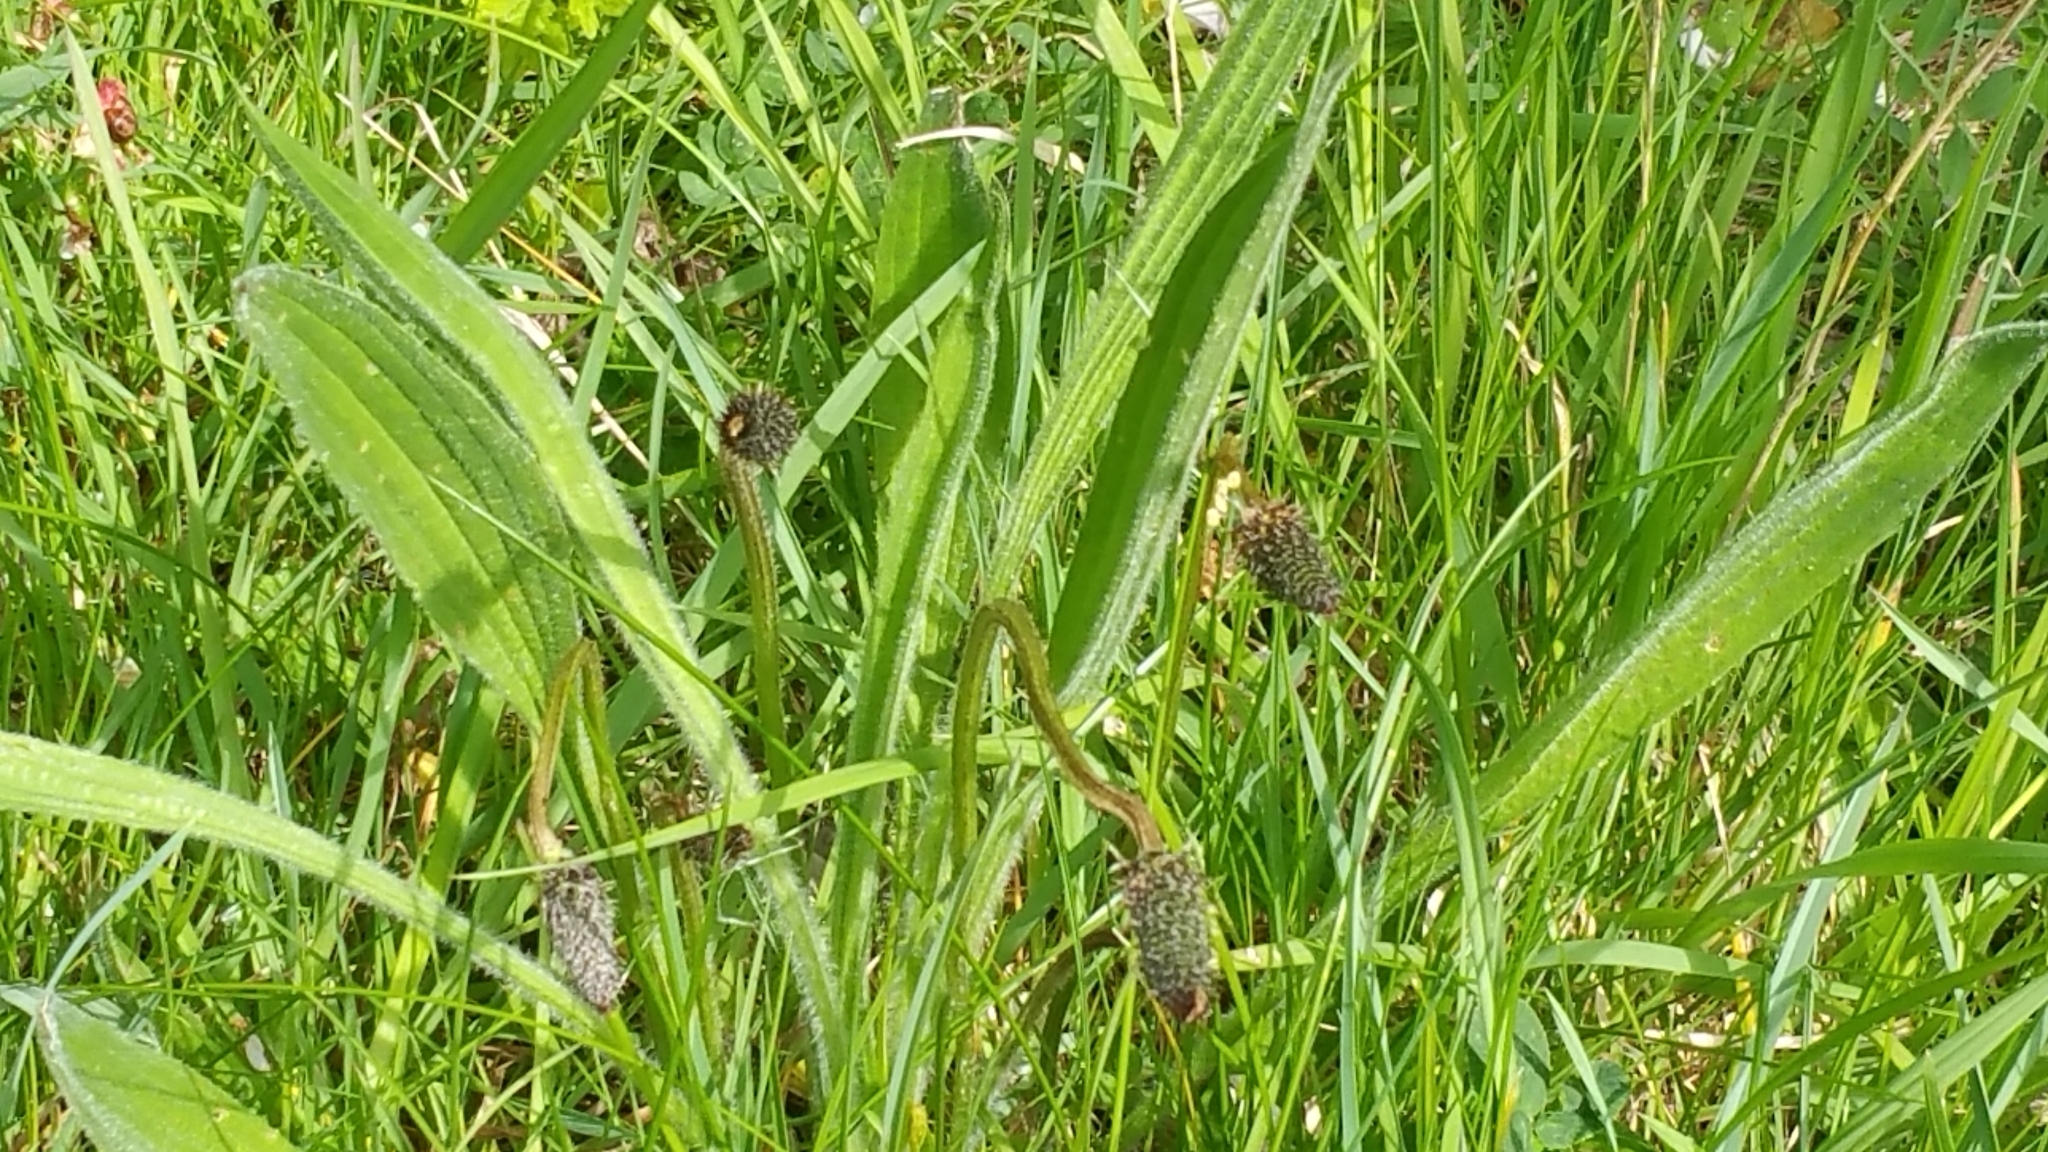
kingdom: Plantae
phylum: Tracheophyta
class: Magnoliopsida
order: Lamiales
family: Plantaginaceae
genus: Plantago
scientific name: Plantago media
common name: Hoary plantain
